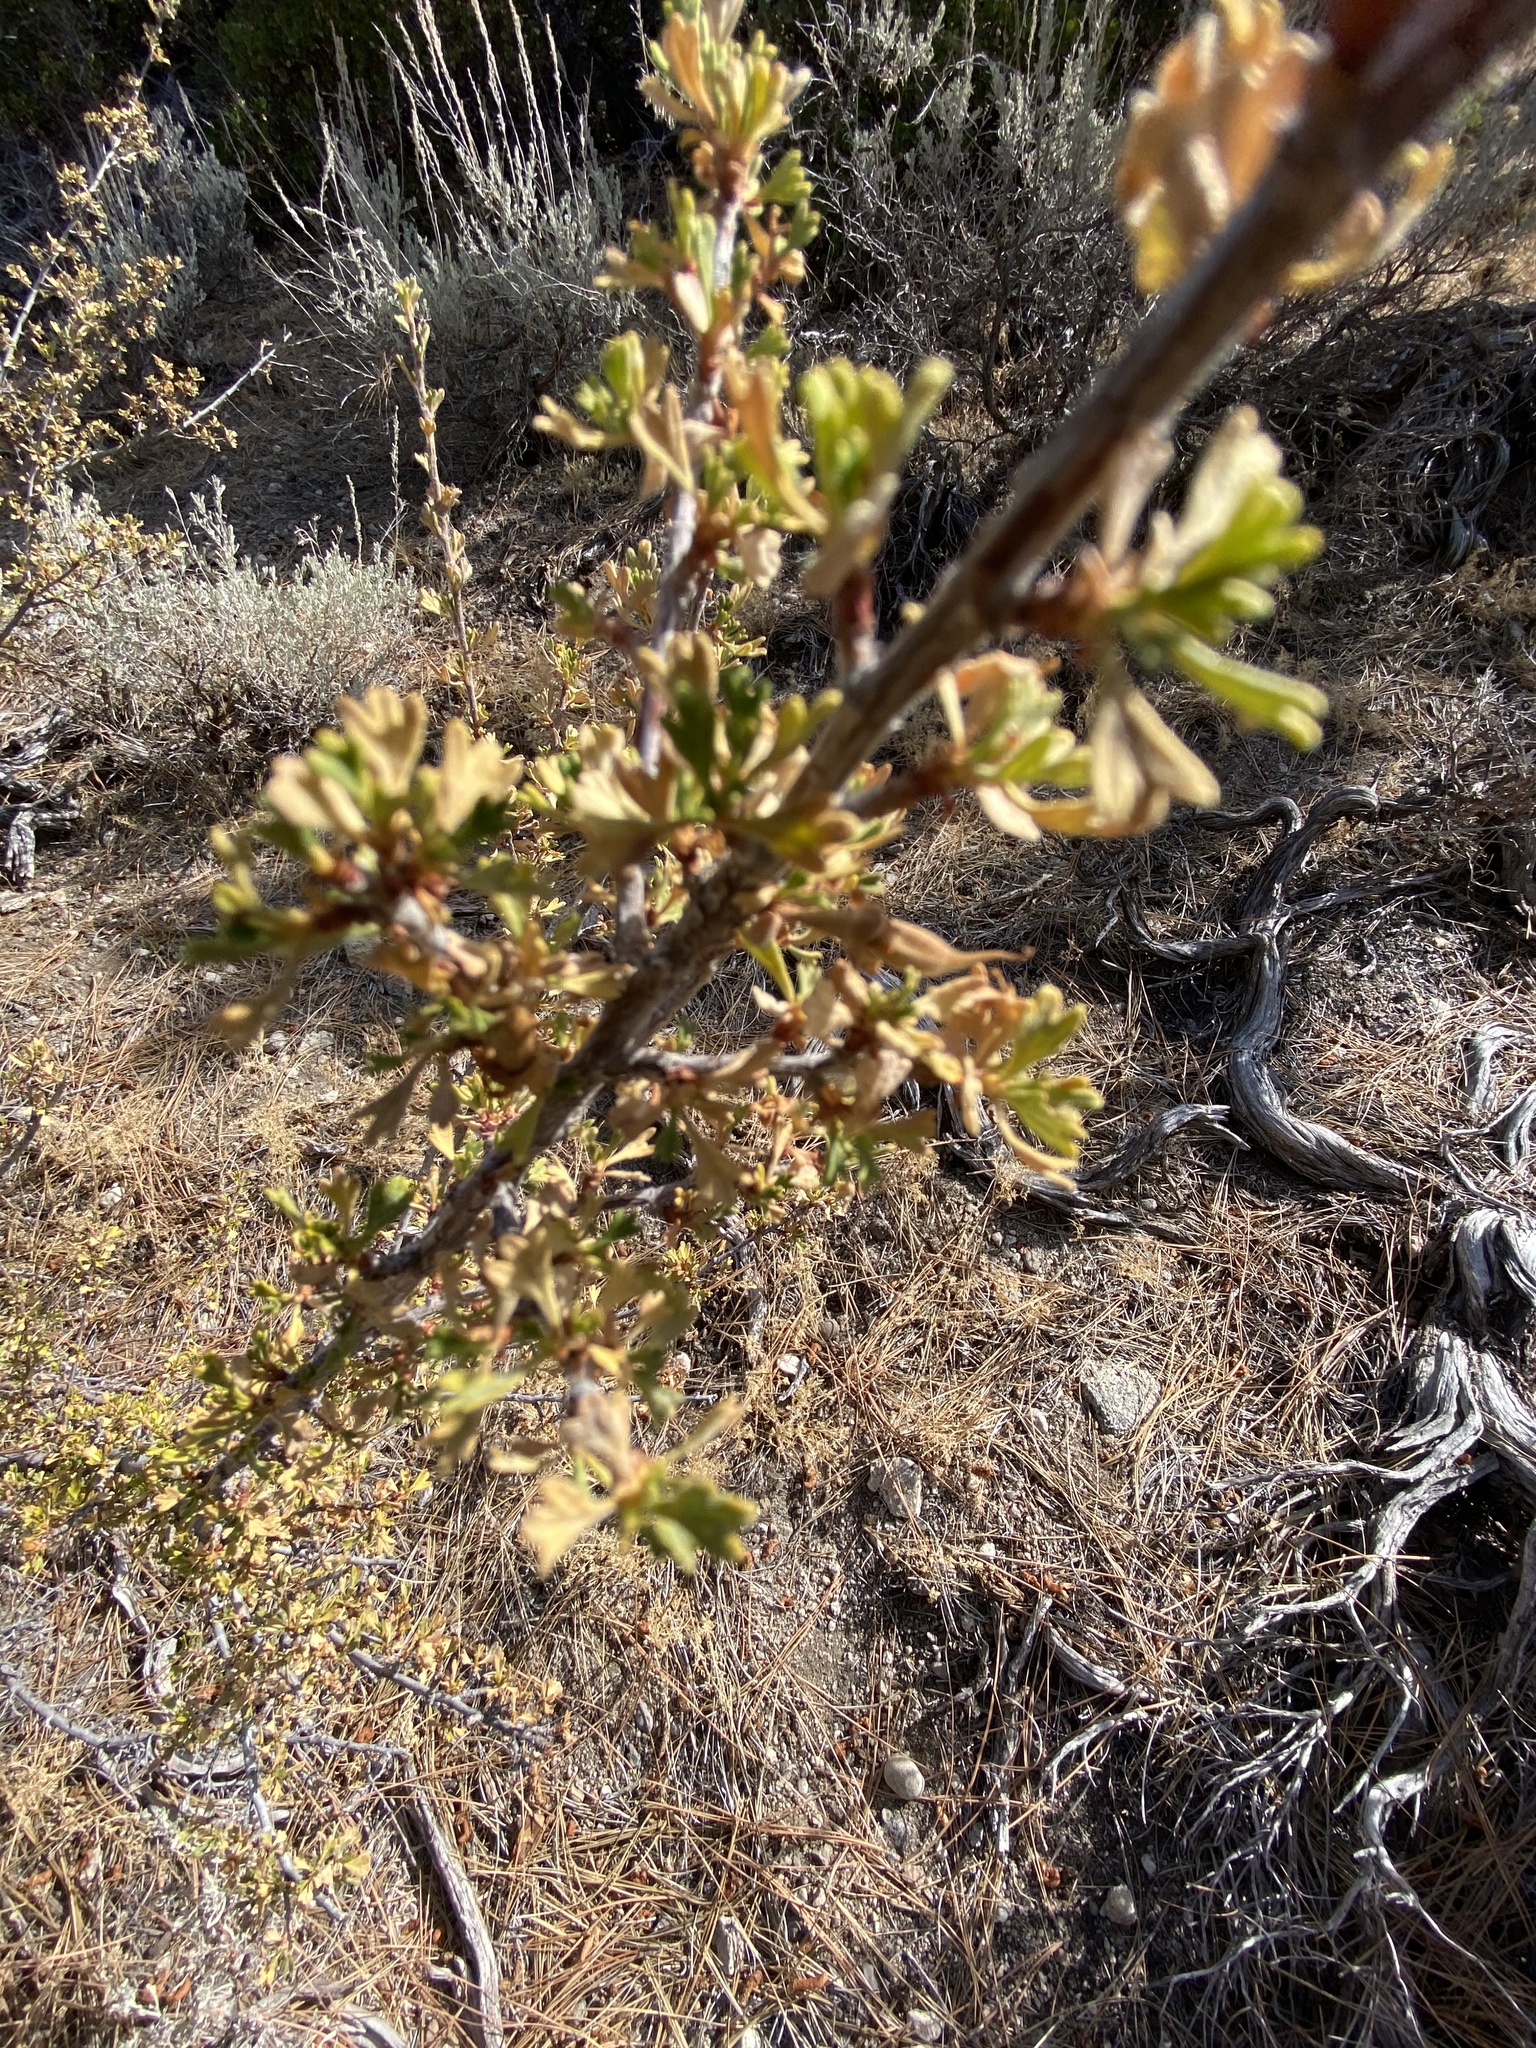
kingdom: Plantae
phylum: Tracheophyta
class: Magnoliopsida
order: Rosales
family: Rosaceae
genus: Purshia
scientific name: Purshia tridentata
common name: Antelope bitterbrush
